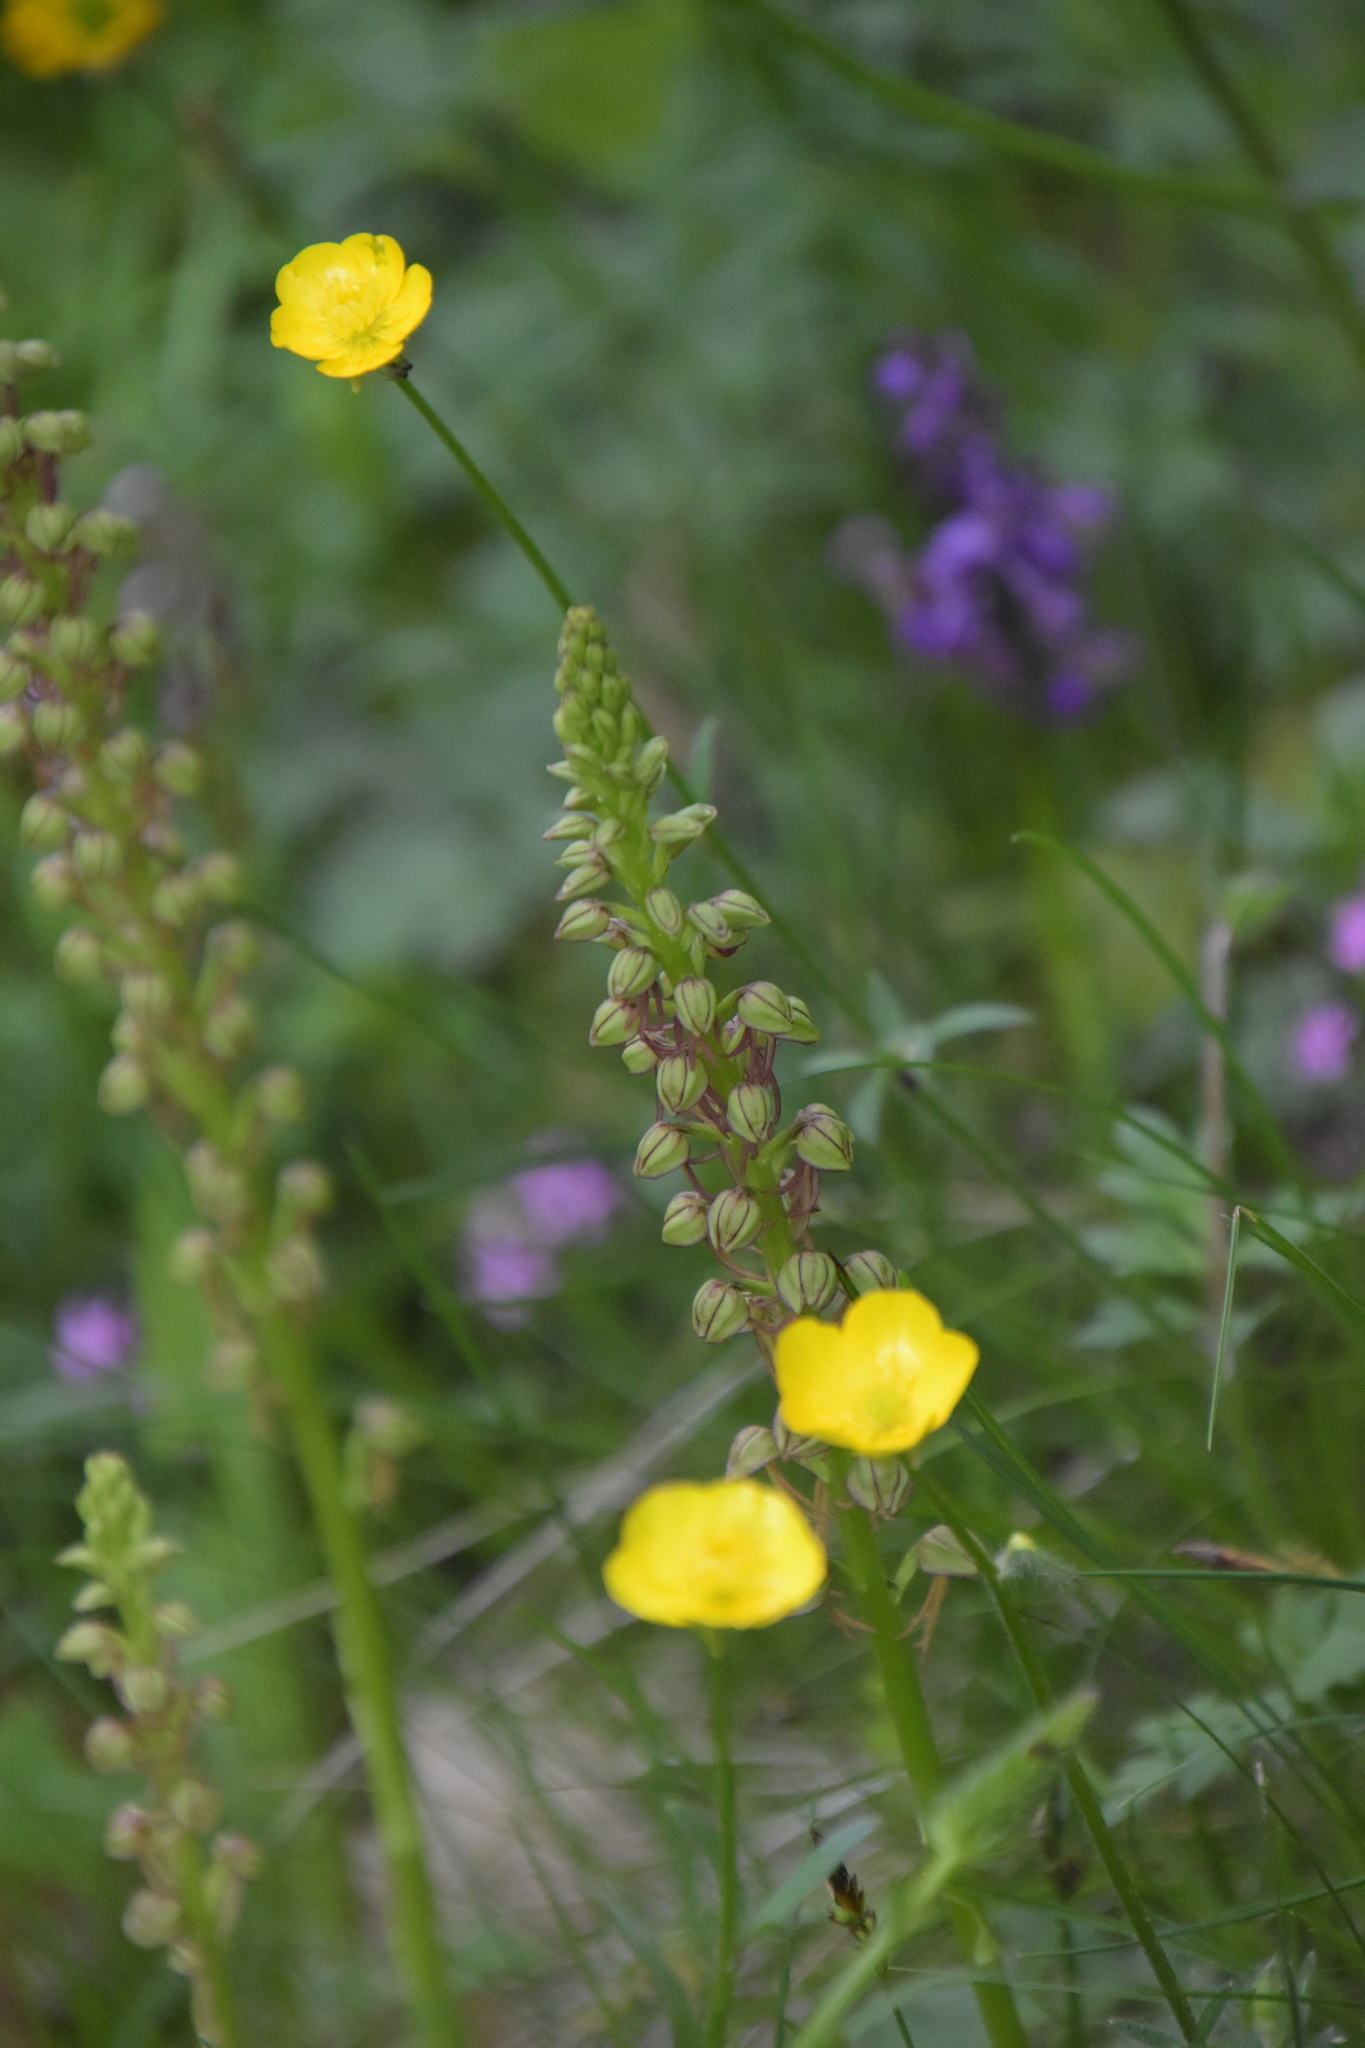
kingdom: Plantae
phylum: Tracheophyta
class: Liliopsida
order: Asparagales
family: Orchidaceae
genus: Orchis
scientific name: Orchis anthropophora
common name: Man orchid
